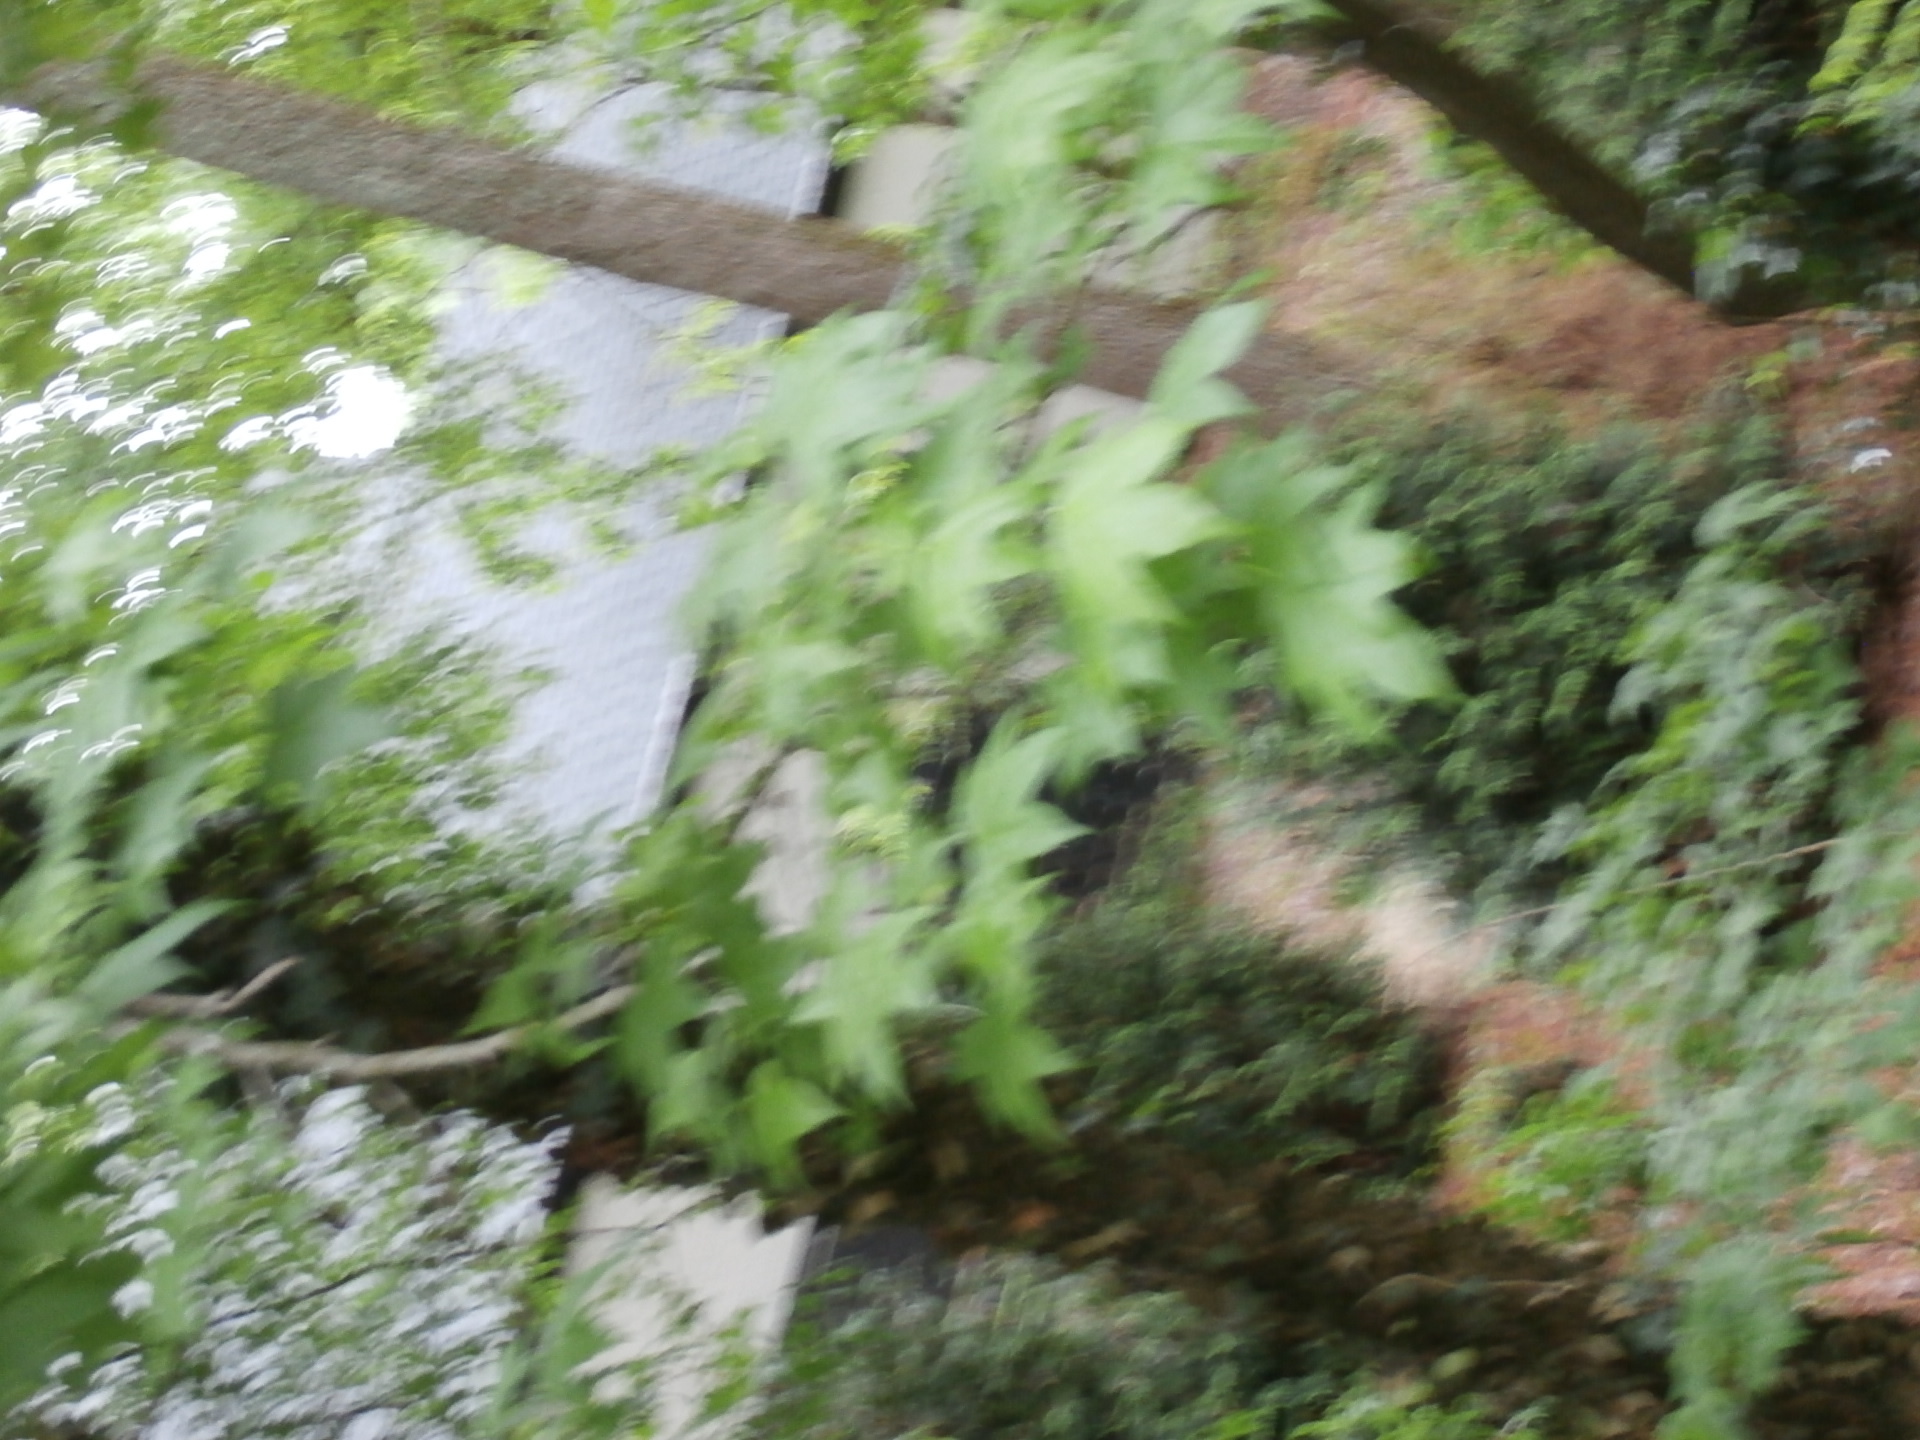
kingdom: Plantae
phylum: Tracheophyta
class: Magnoliopsida
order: Saxifragales
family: Altingiaceae
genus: Liquidambar
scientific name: Liquidambar styraciflua
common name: Sweet gum
